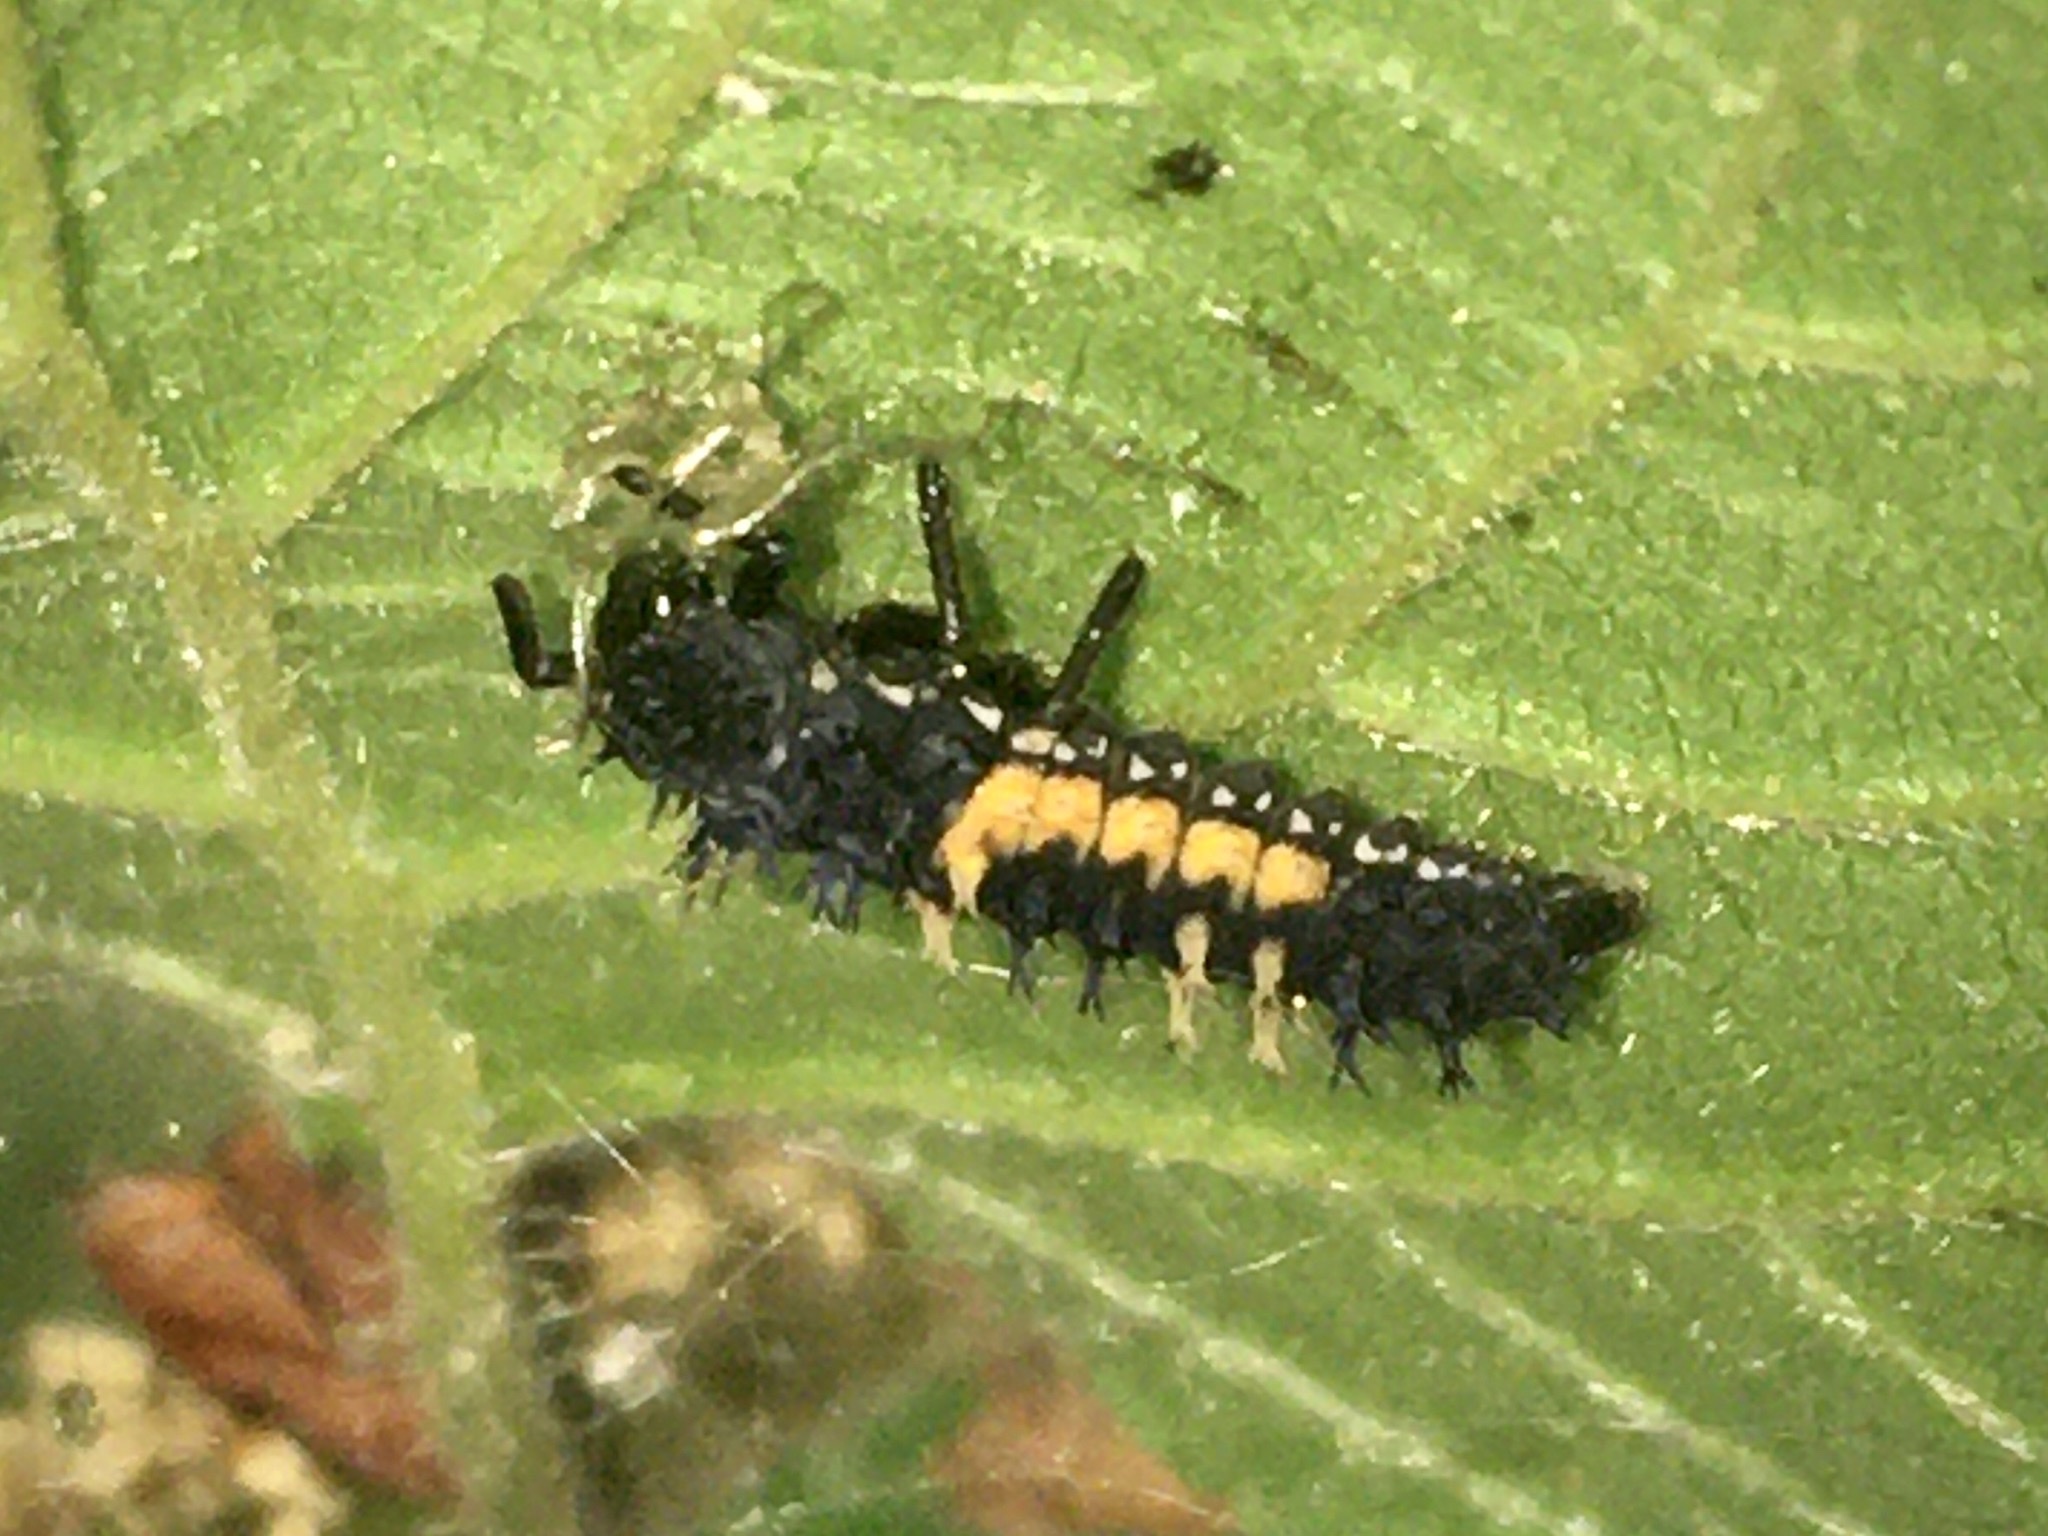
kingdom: Animalia
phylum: Arthropoda
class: Insecta
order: Coleoptera
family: Coccinellidae
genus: Harmonia
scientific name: Harmonia axyridis
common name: Harlequin ladybird
